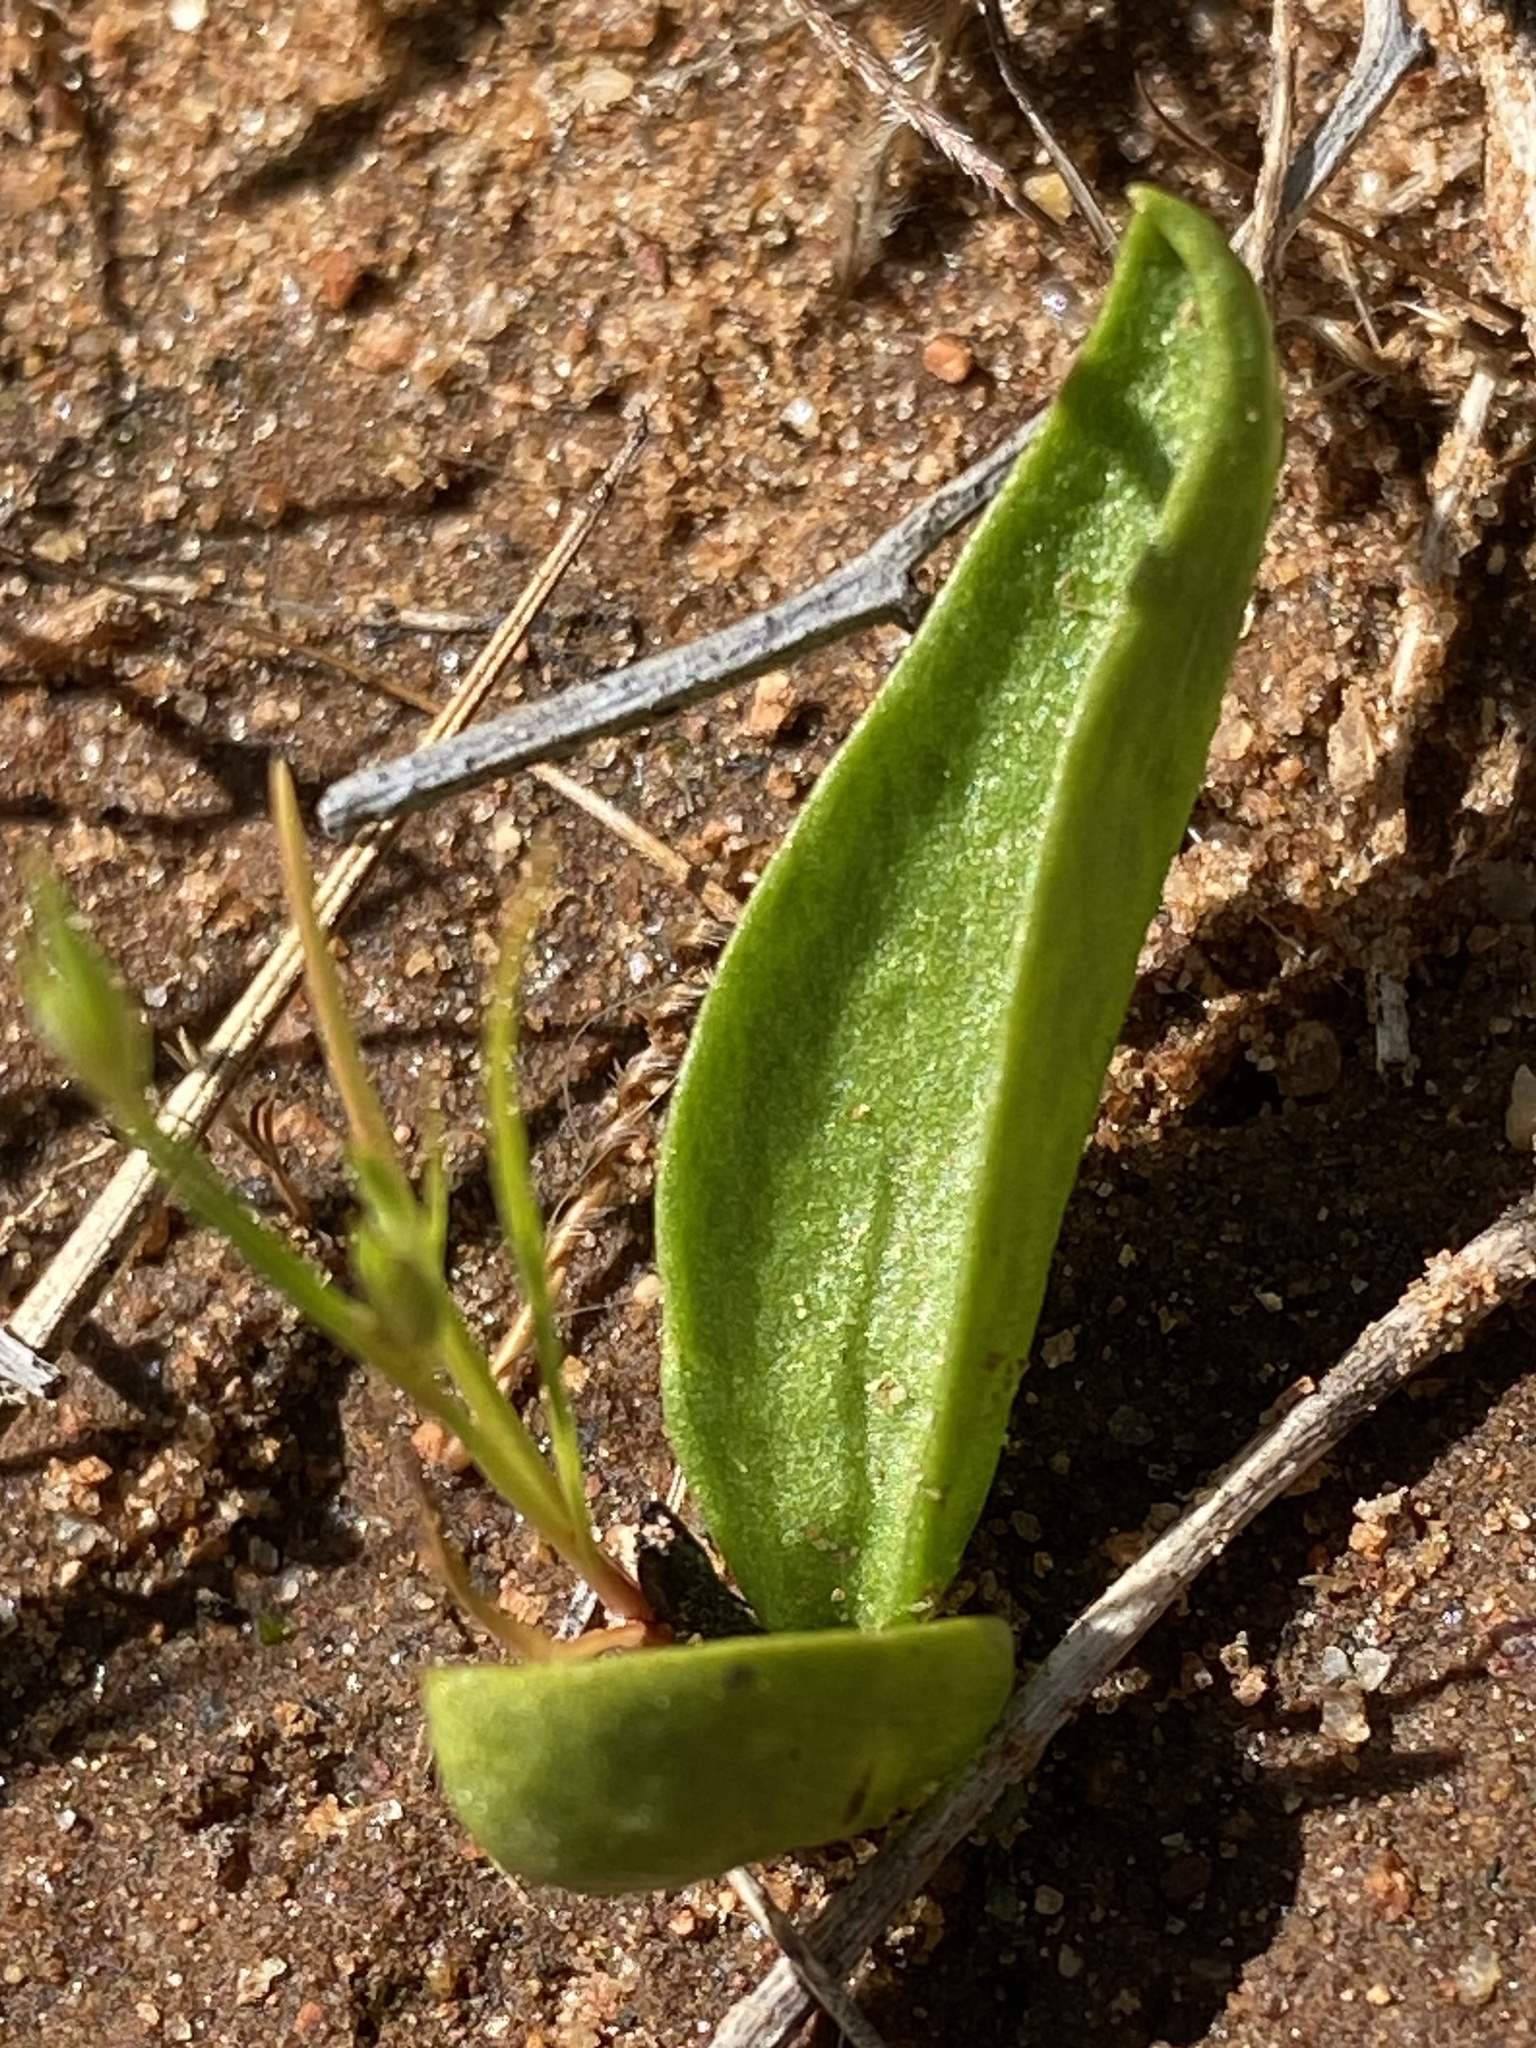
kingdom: Plantae
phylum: Tracheophyta
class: Polypodiopsida
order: Ophioglossales
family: Ophioglossaceae
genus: Ophioglossum
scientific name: Ophioglossum californicum
